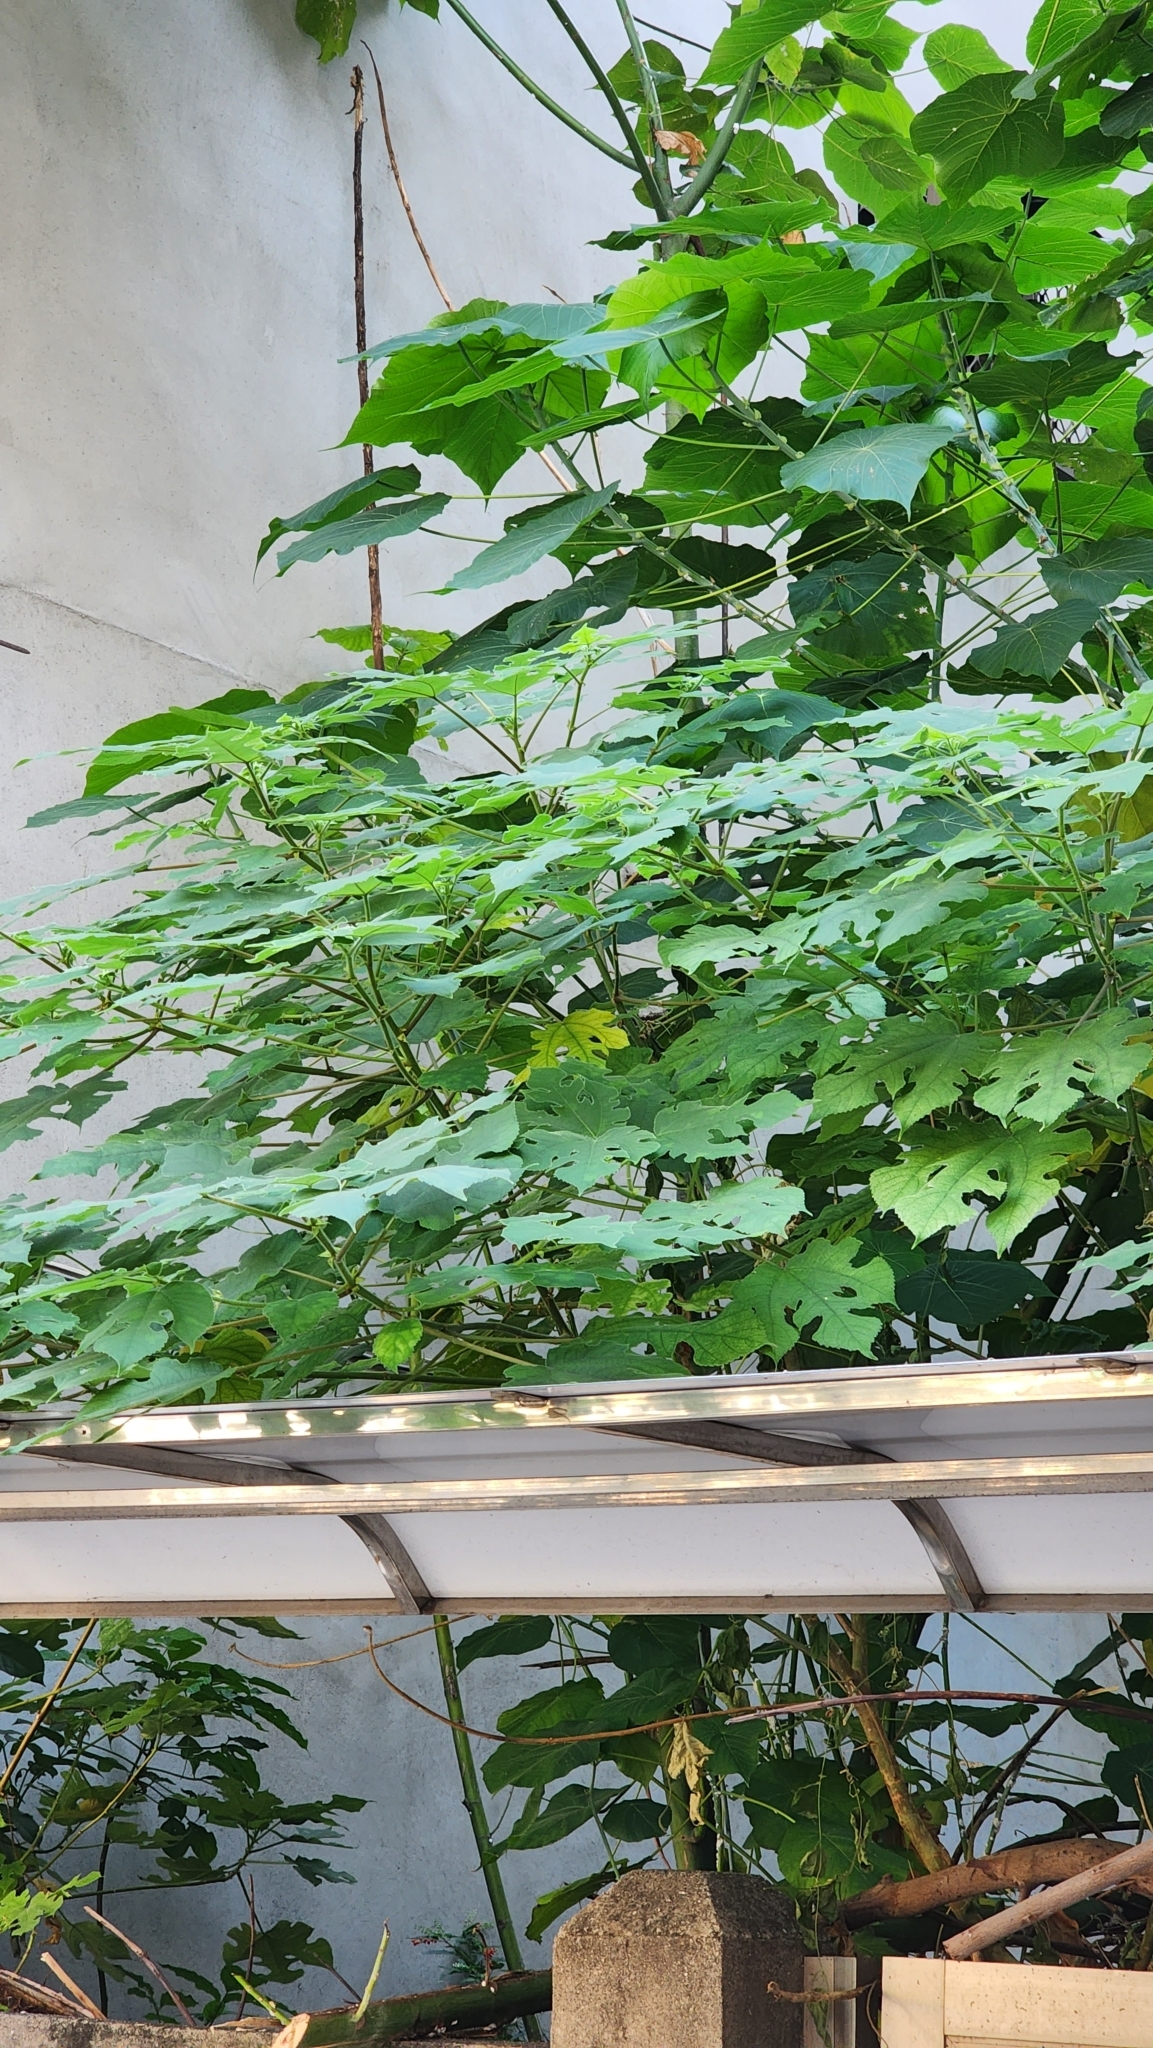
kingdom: Plantae
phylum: Tracheophyta
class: Magnoliopsida
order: Rosales
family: Moraceae
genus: Broussonetia
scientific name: Broussonetia papyrifera
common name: Paper mulberry
